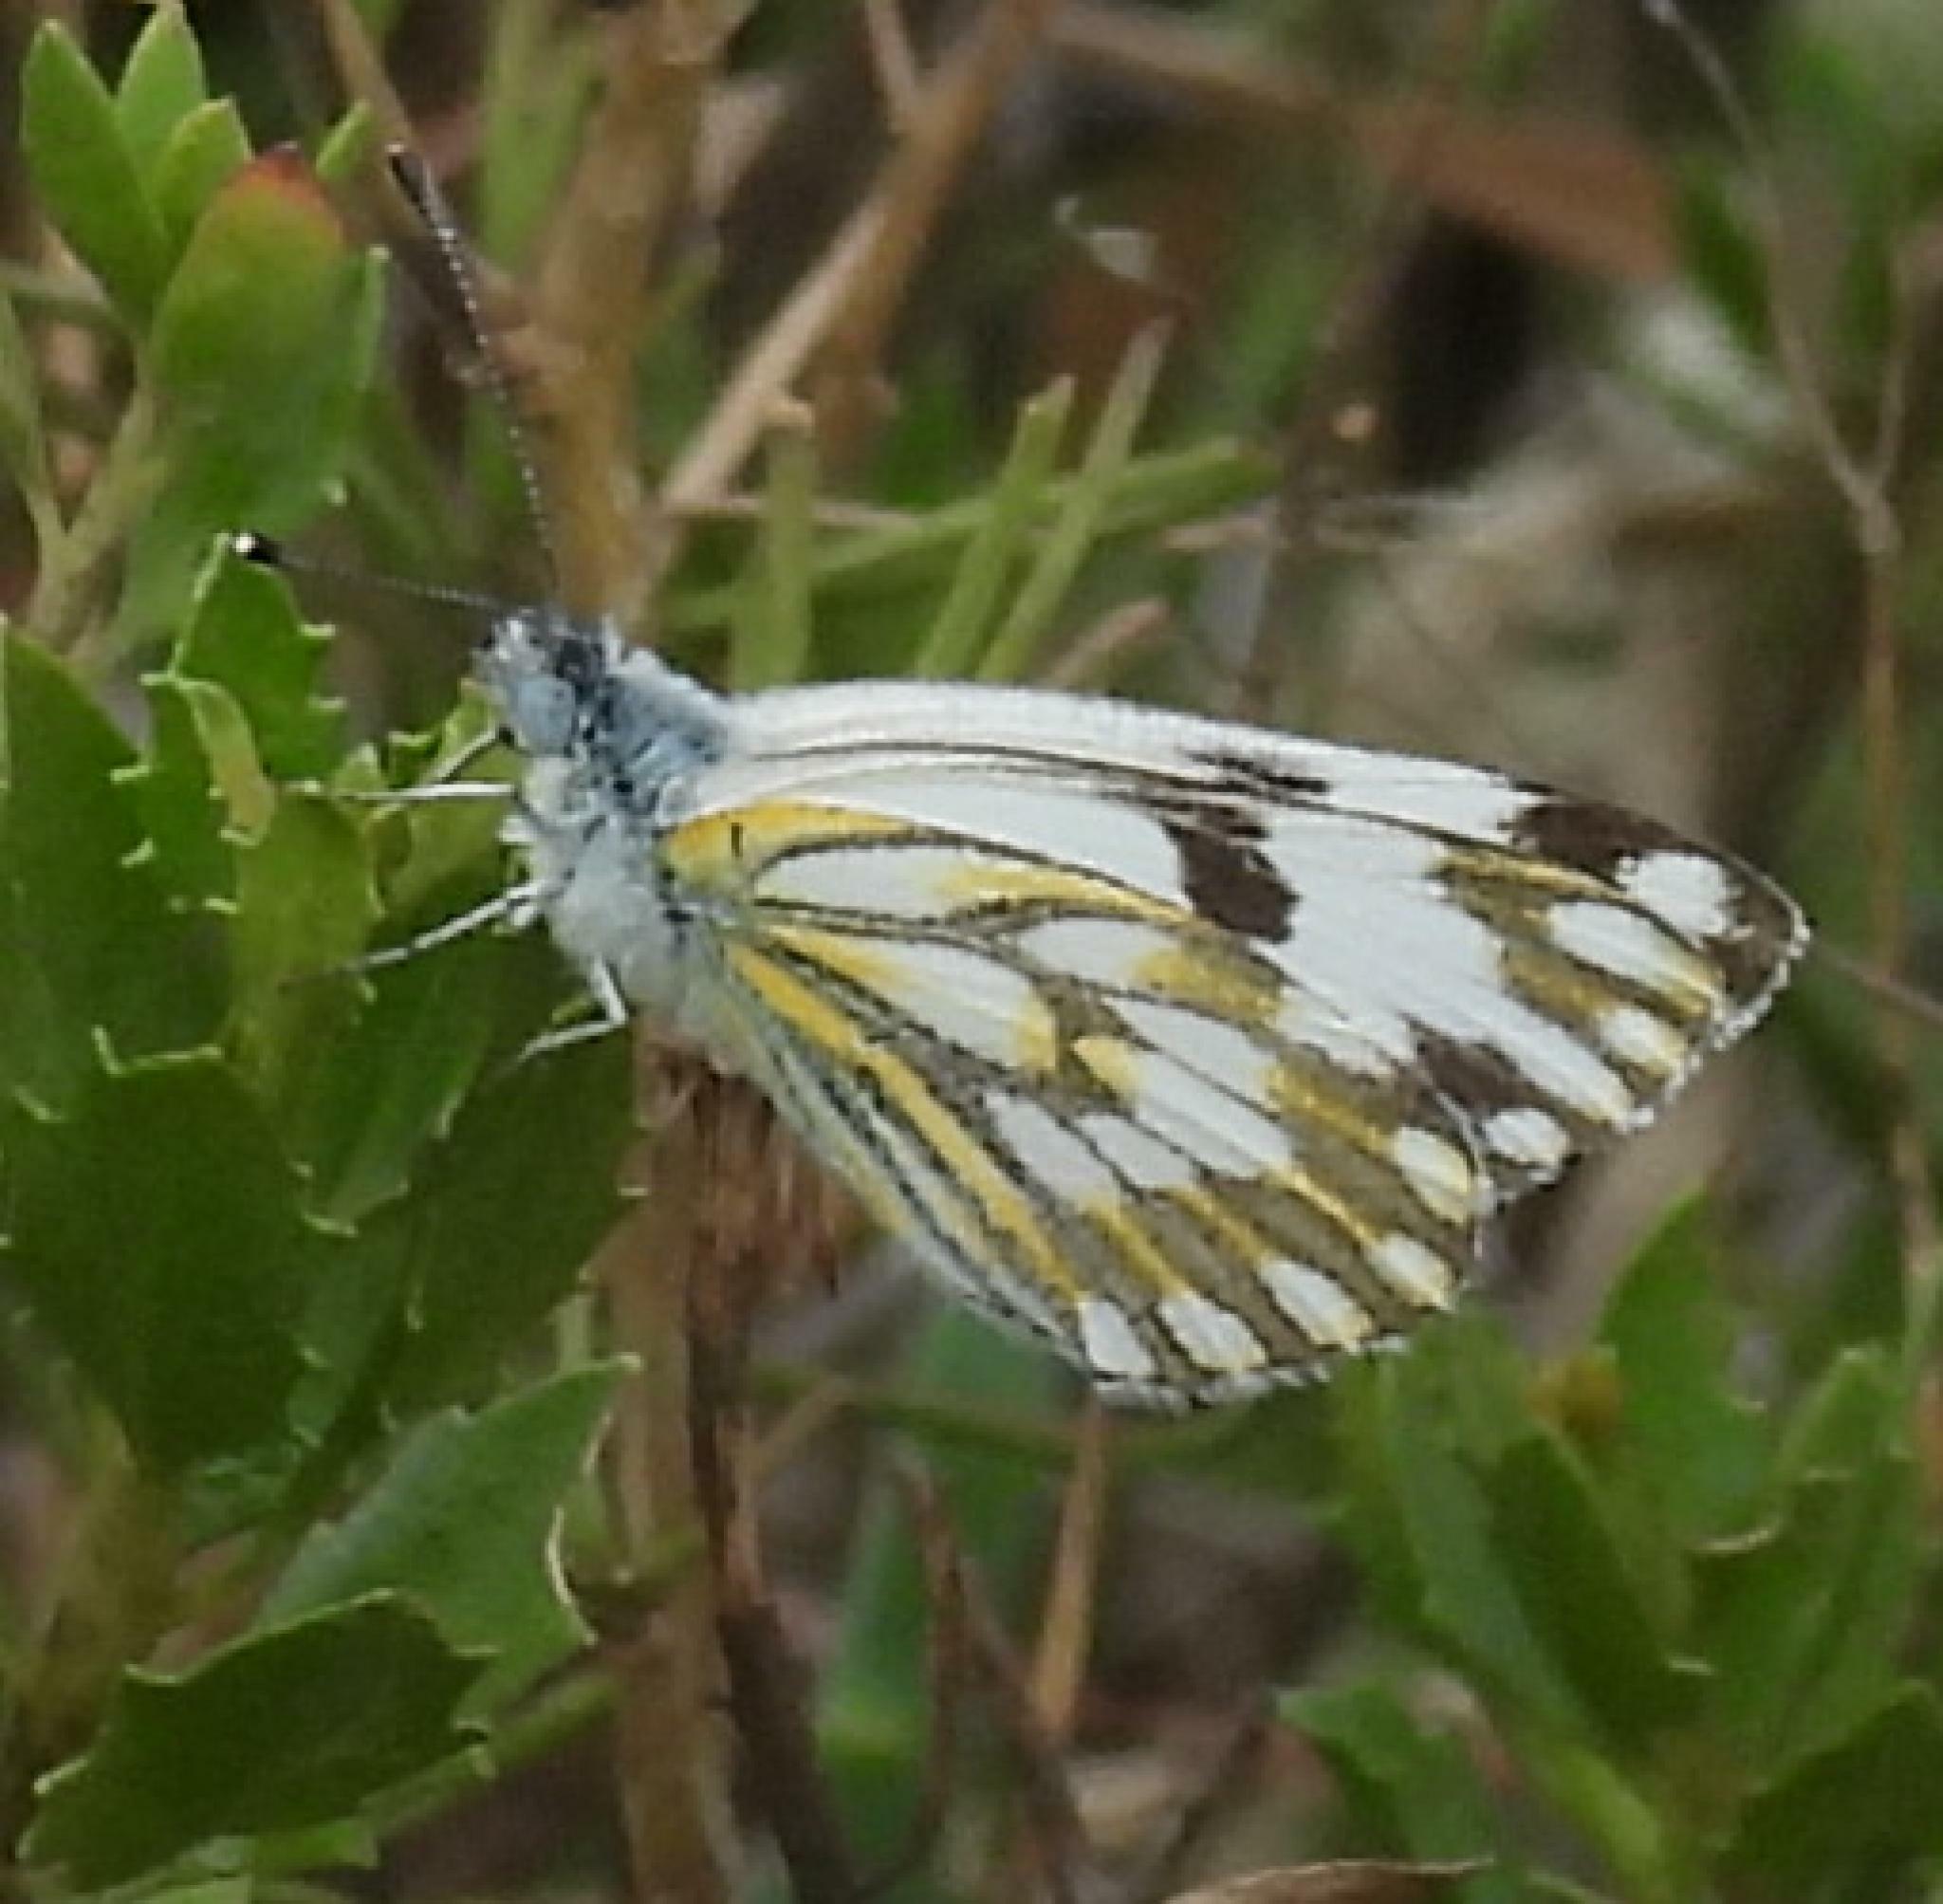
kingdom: Animalia
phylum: Arthropoda
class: Insecta
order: Lepidoptera
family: Pieridae
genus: Pontia
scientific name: Pontia helice
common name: Meadow white
